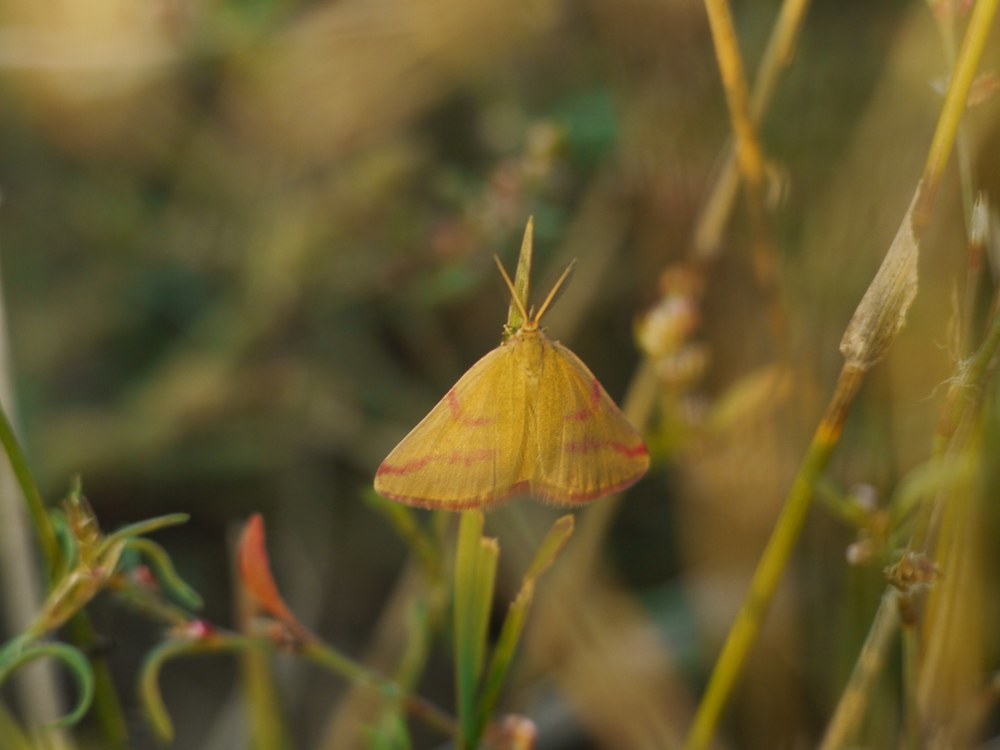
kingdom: Animalia
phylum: Arthropoda
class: Insecta
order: Lepidoptera
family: Geometridae
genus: Lythria
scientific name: Lythria purpuraria
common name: Purple-barred yellow
